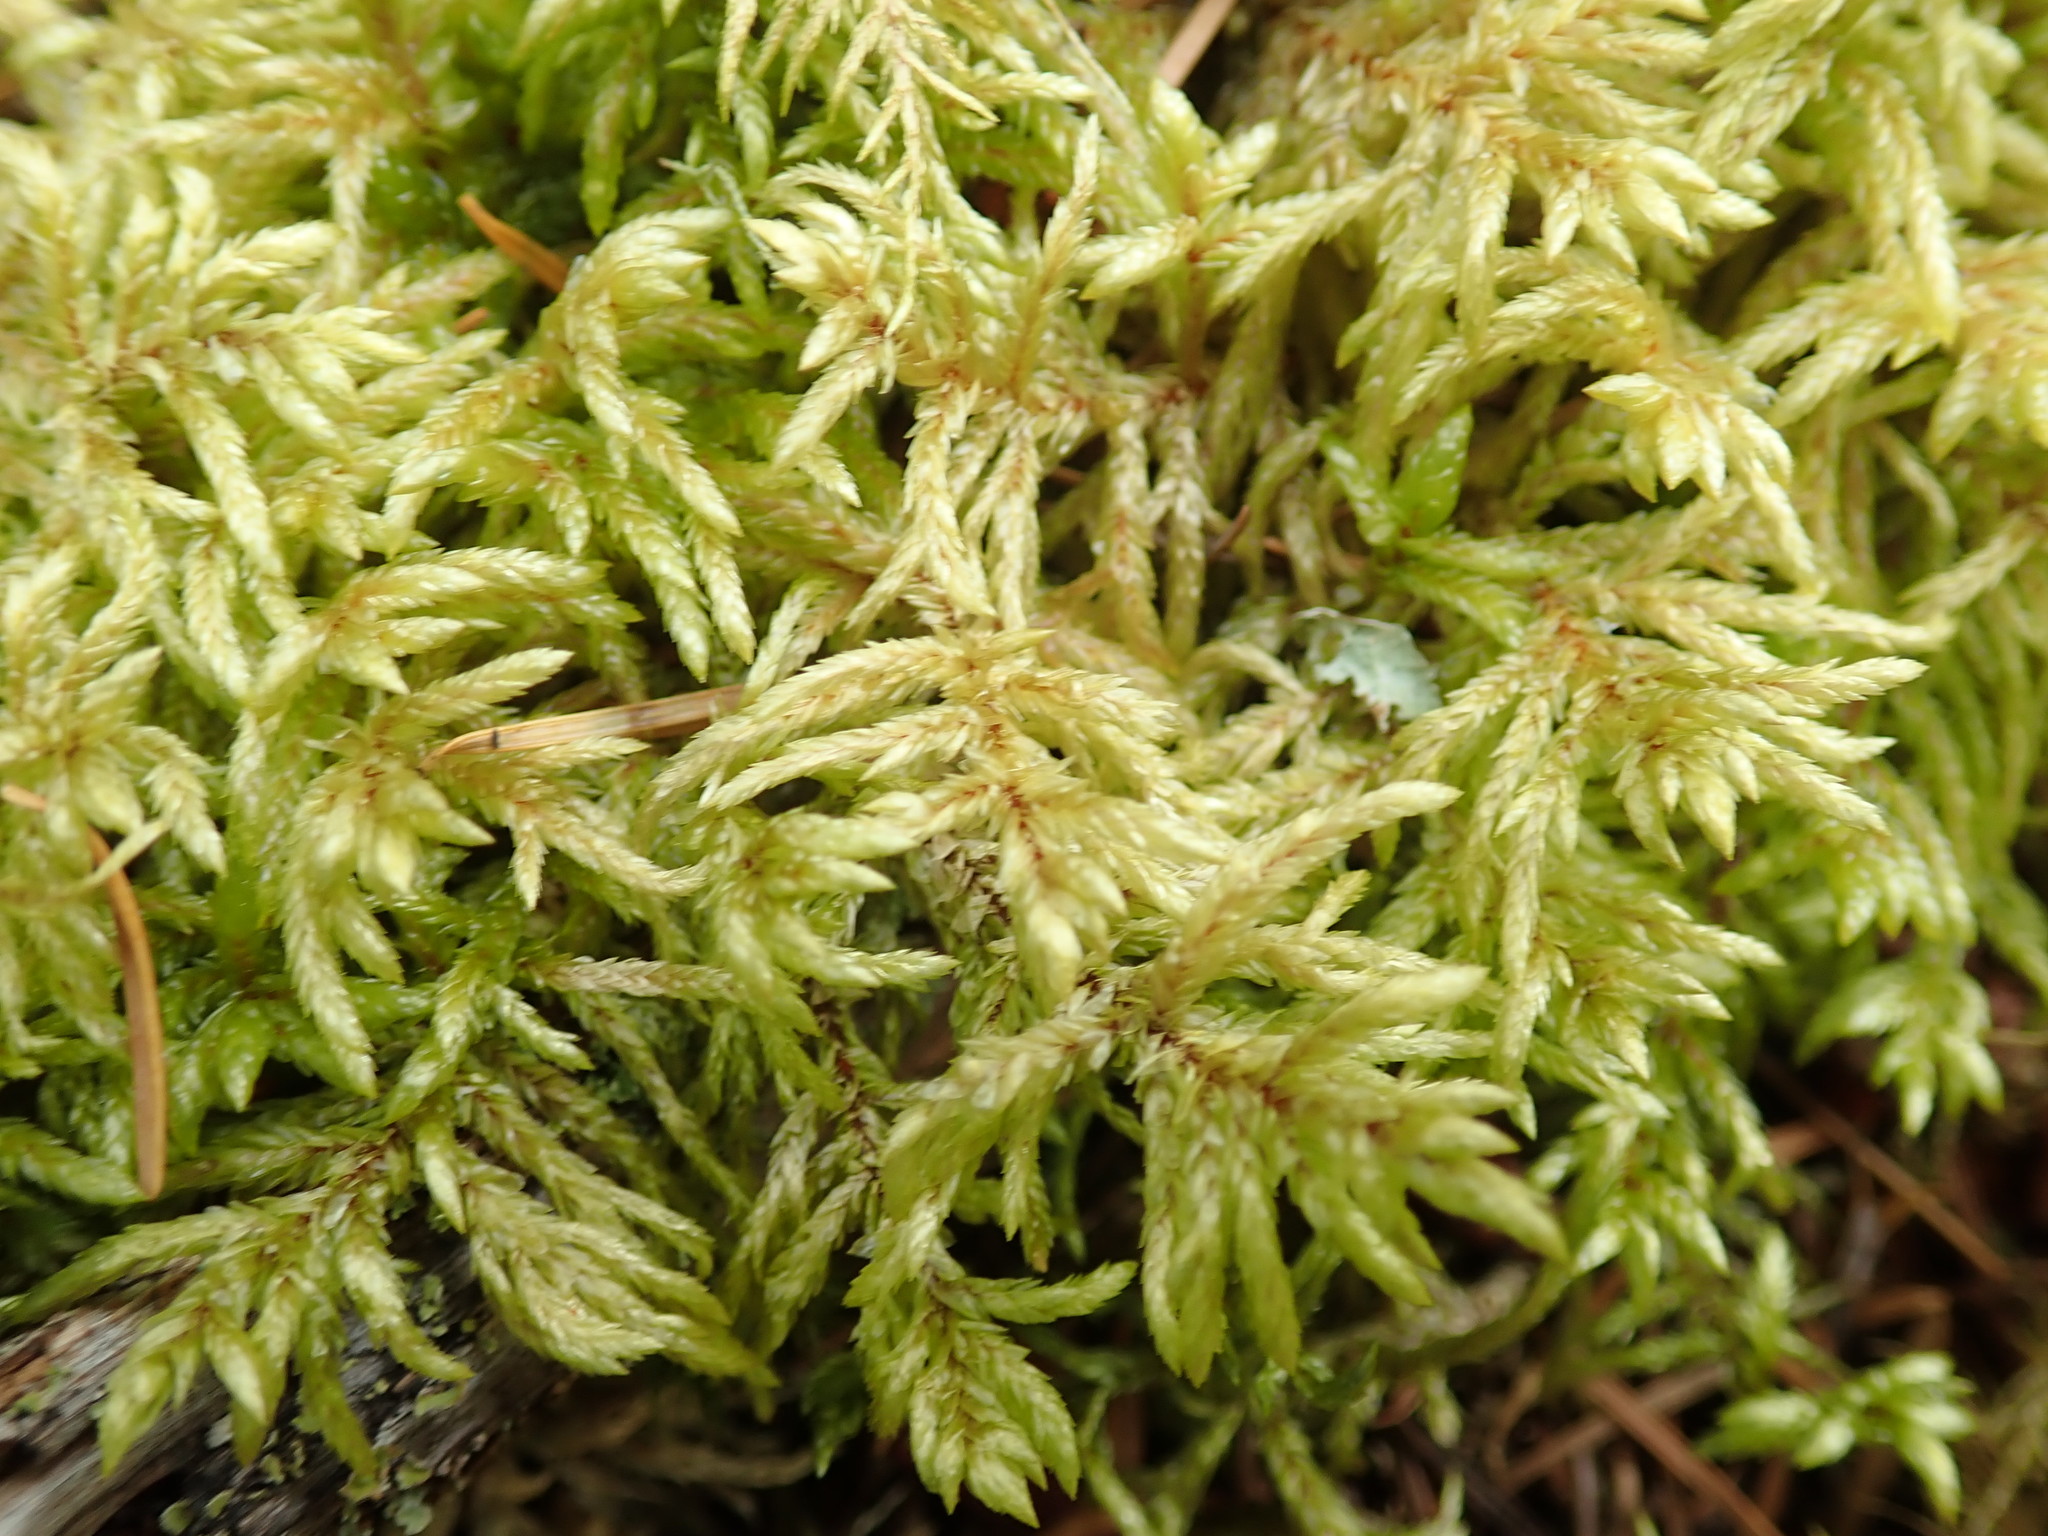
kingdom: Plantae
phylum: Bryophyta
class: Bryopsida
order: Hypnales
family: Hylocomiaceae
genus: Pleurozium
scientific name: Pleurozium schreberi
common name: Red-stemmed feather moss
